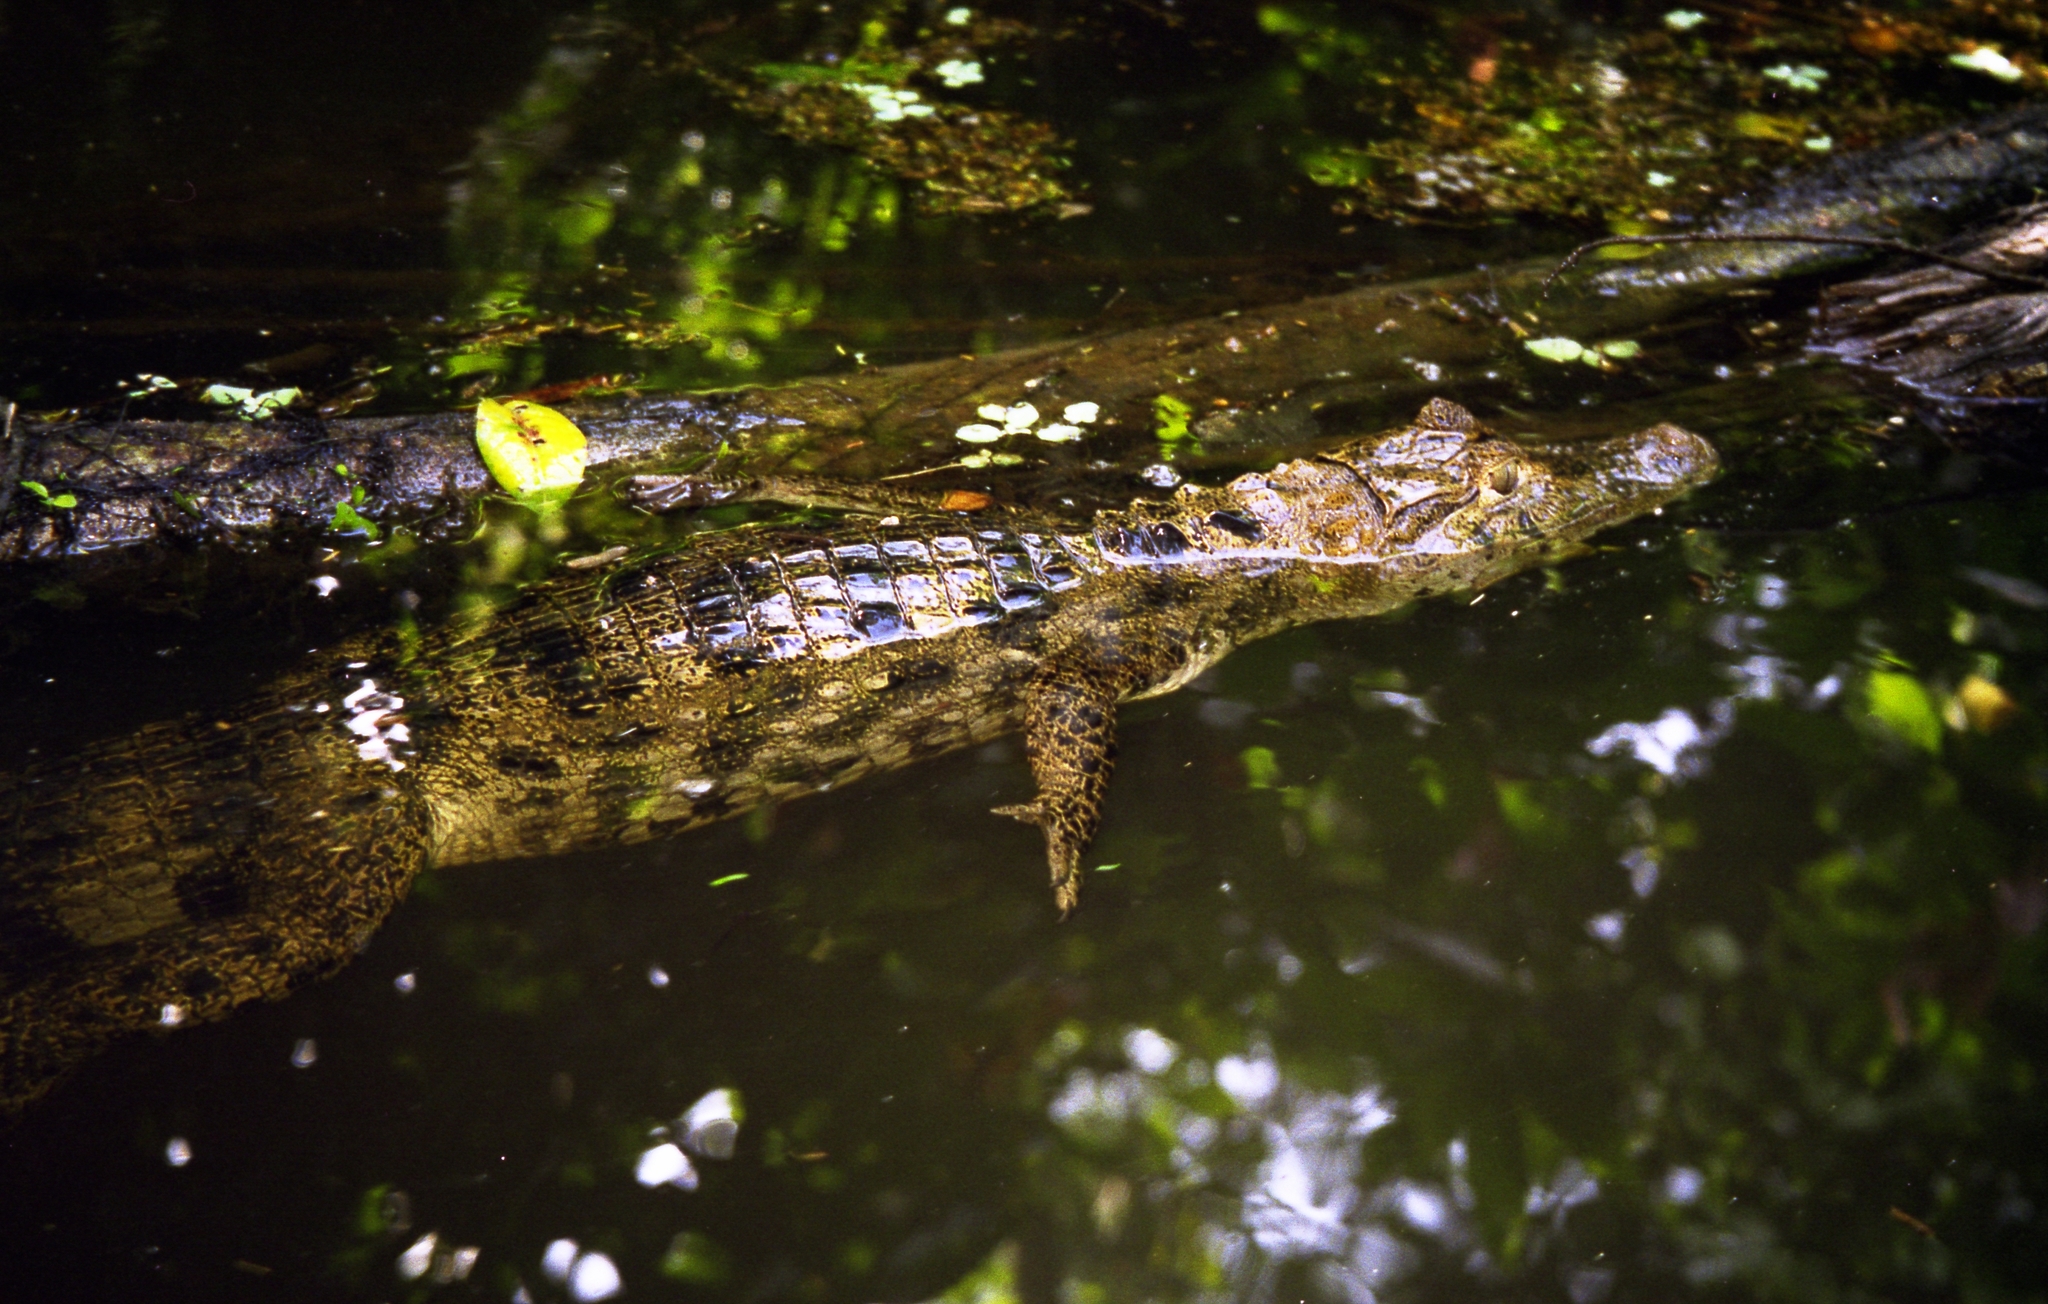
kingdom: Animalia
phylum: Chordata
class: Crocodylia
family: Alligatoridae
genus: Caiman
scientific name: Caiman crocodilus
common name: Common caiman
